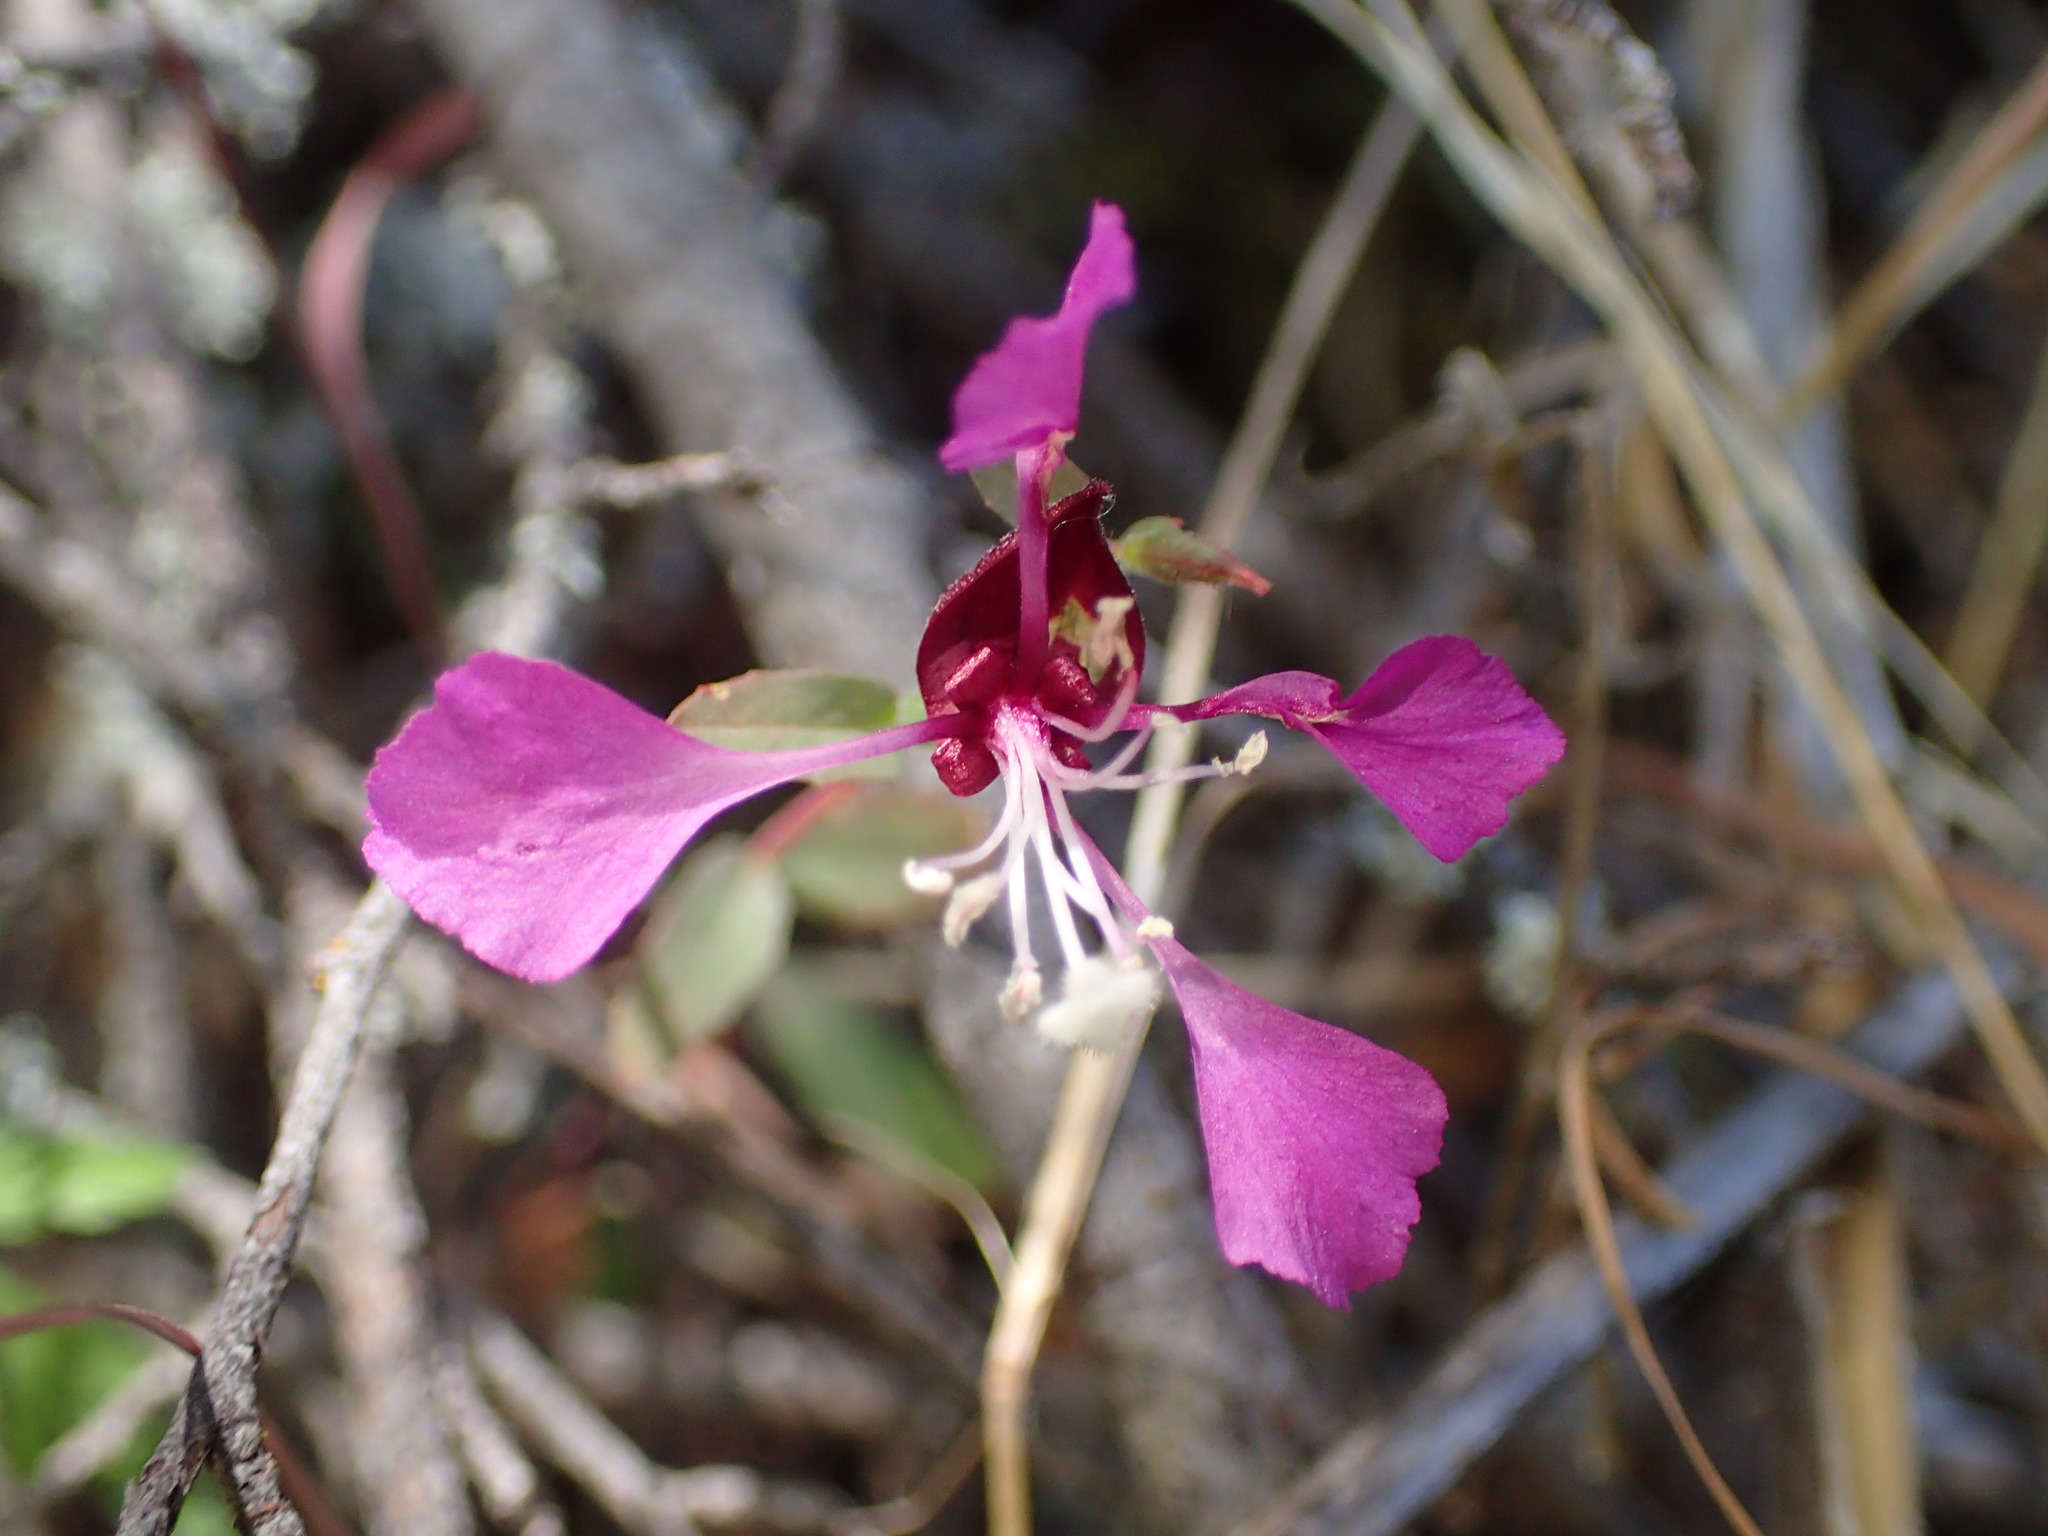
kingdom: Plantae
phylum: Tracheophyta
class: Magnoliopsida
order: Myrtales
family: Onagraceae
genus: Clarkia
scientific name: Clarkia unguiculata
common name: Clarkia
